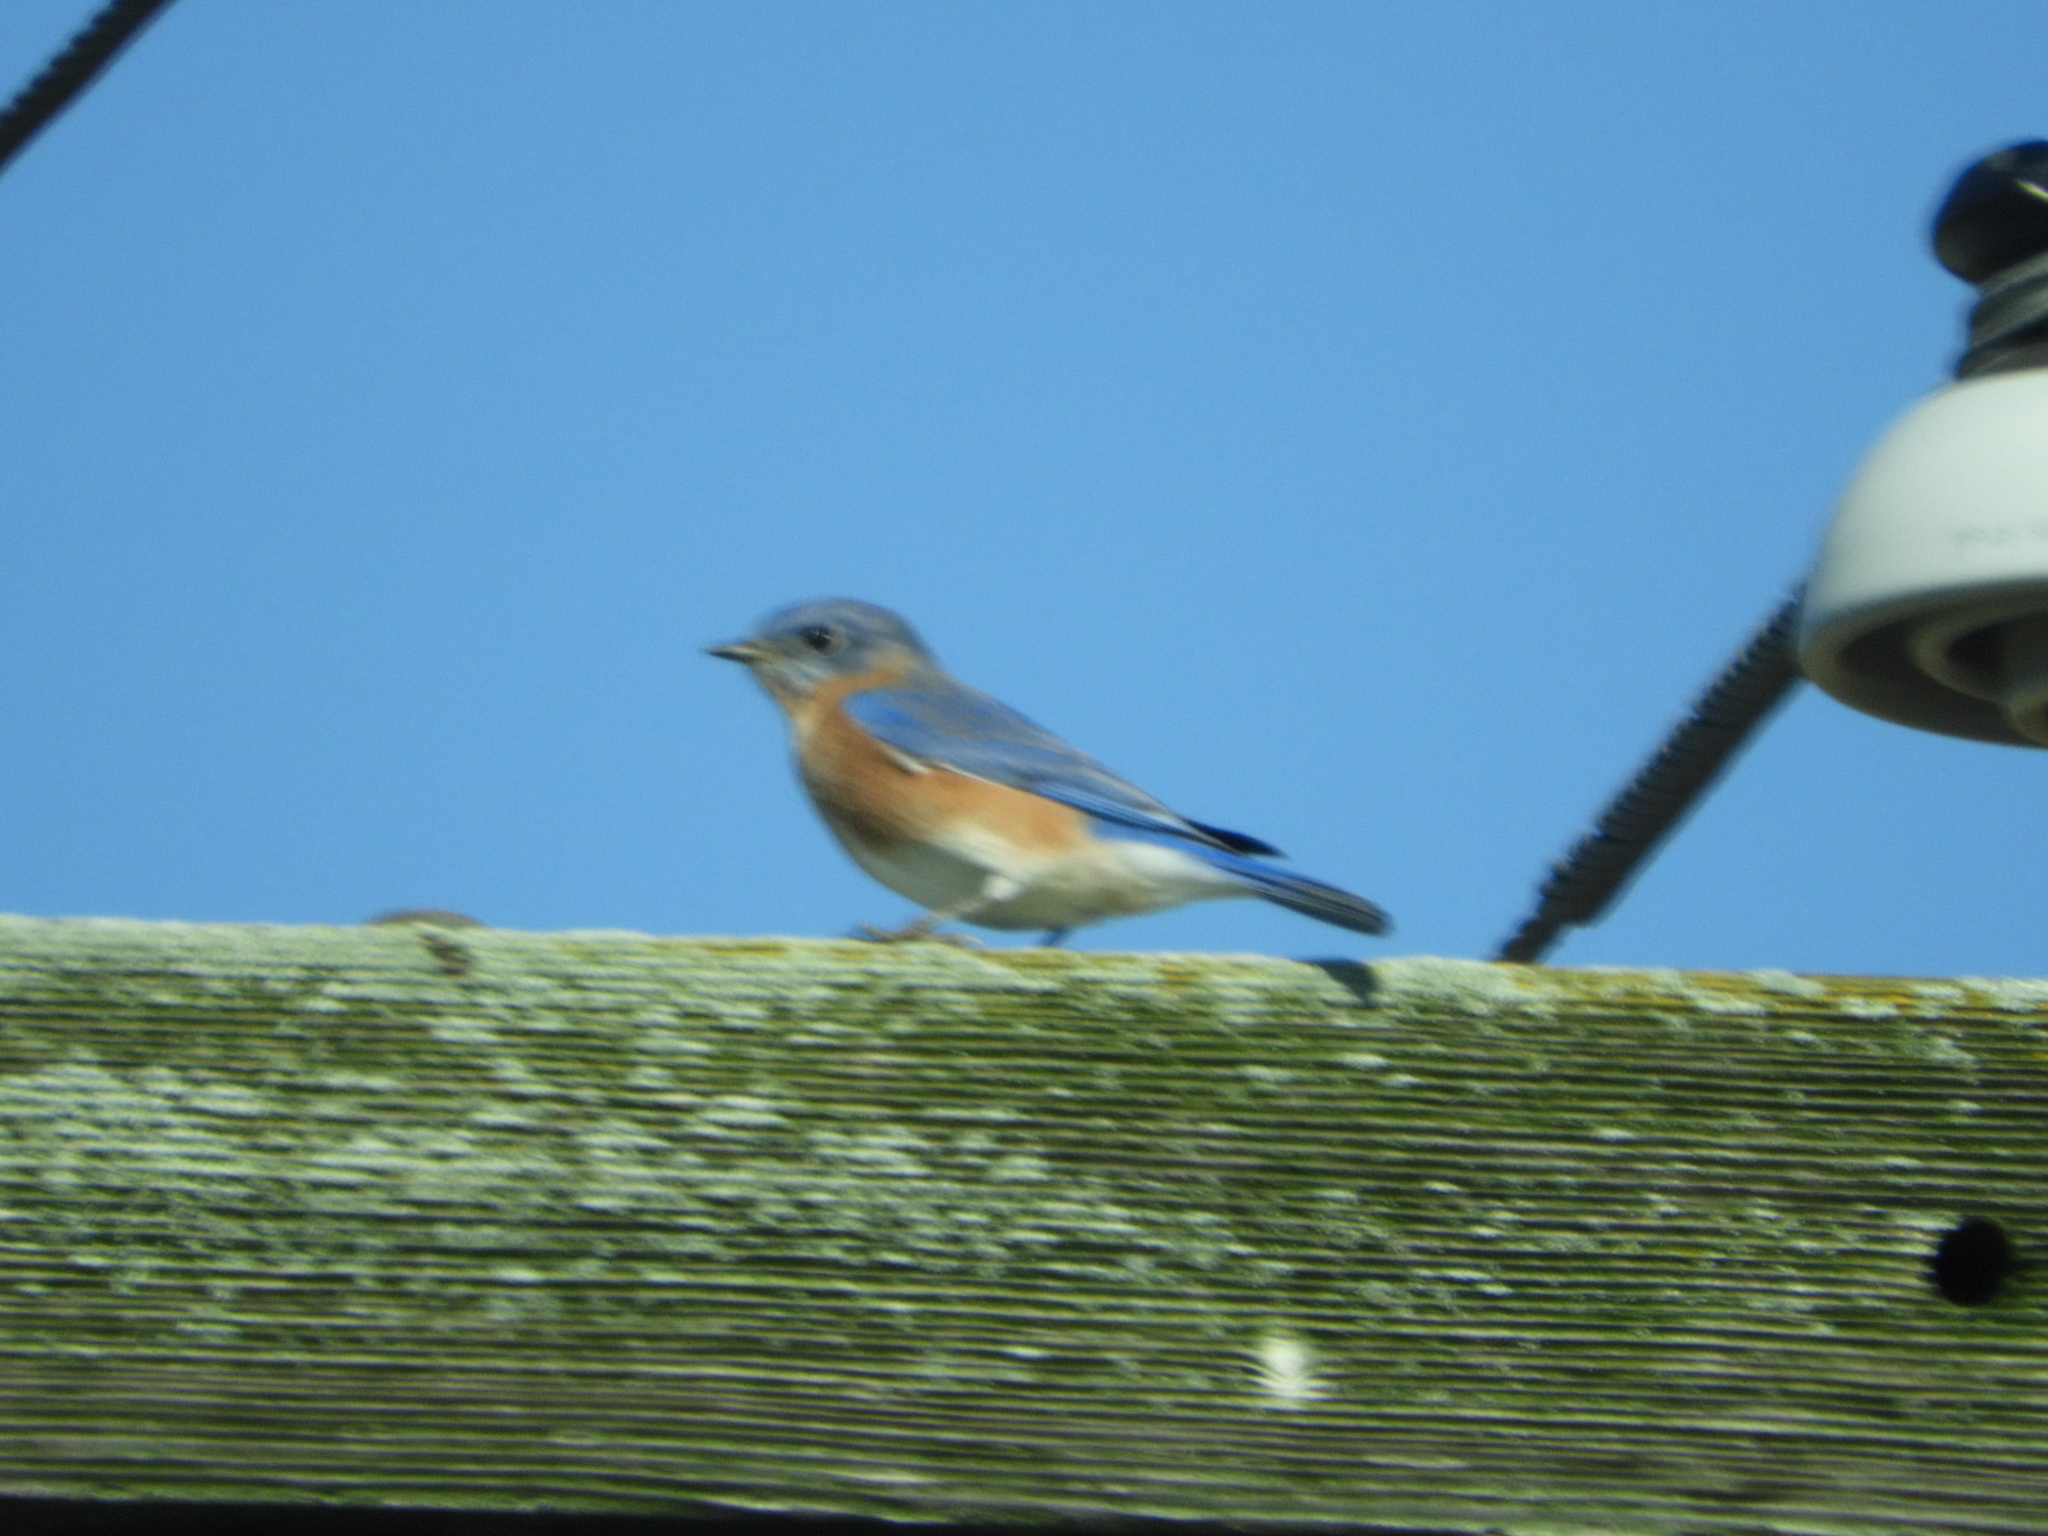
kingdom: Animalia
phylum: Chordata
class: Aves
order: Passeriformes
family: Turdidae
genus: Sialia
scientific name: Sialia sialis
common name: Eastern bluebird
